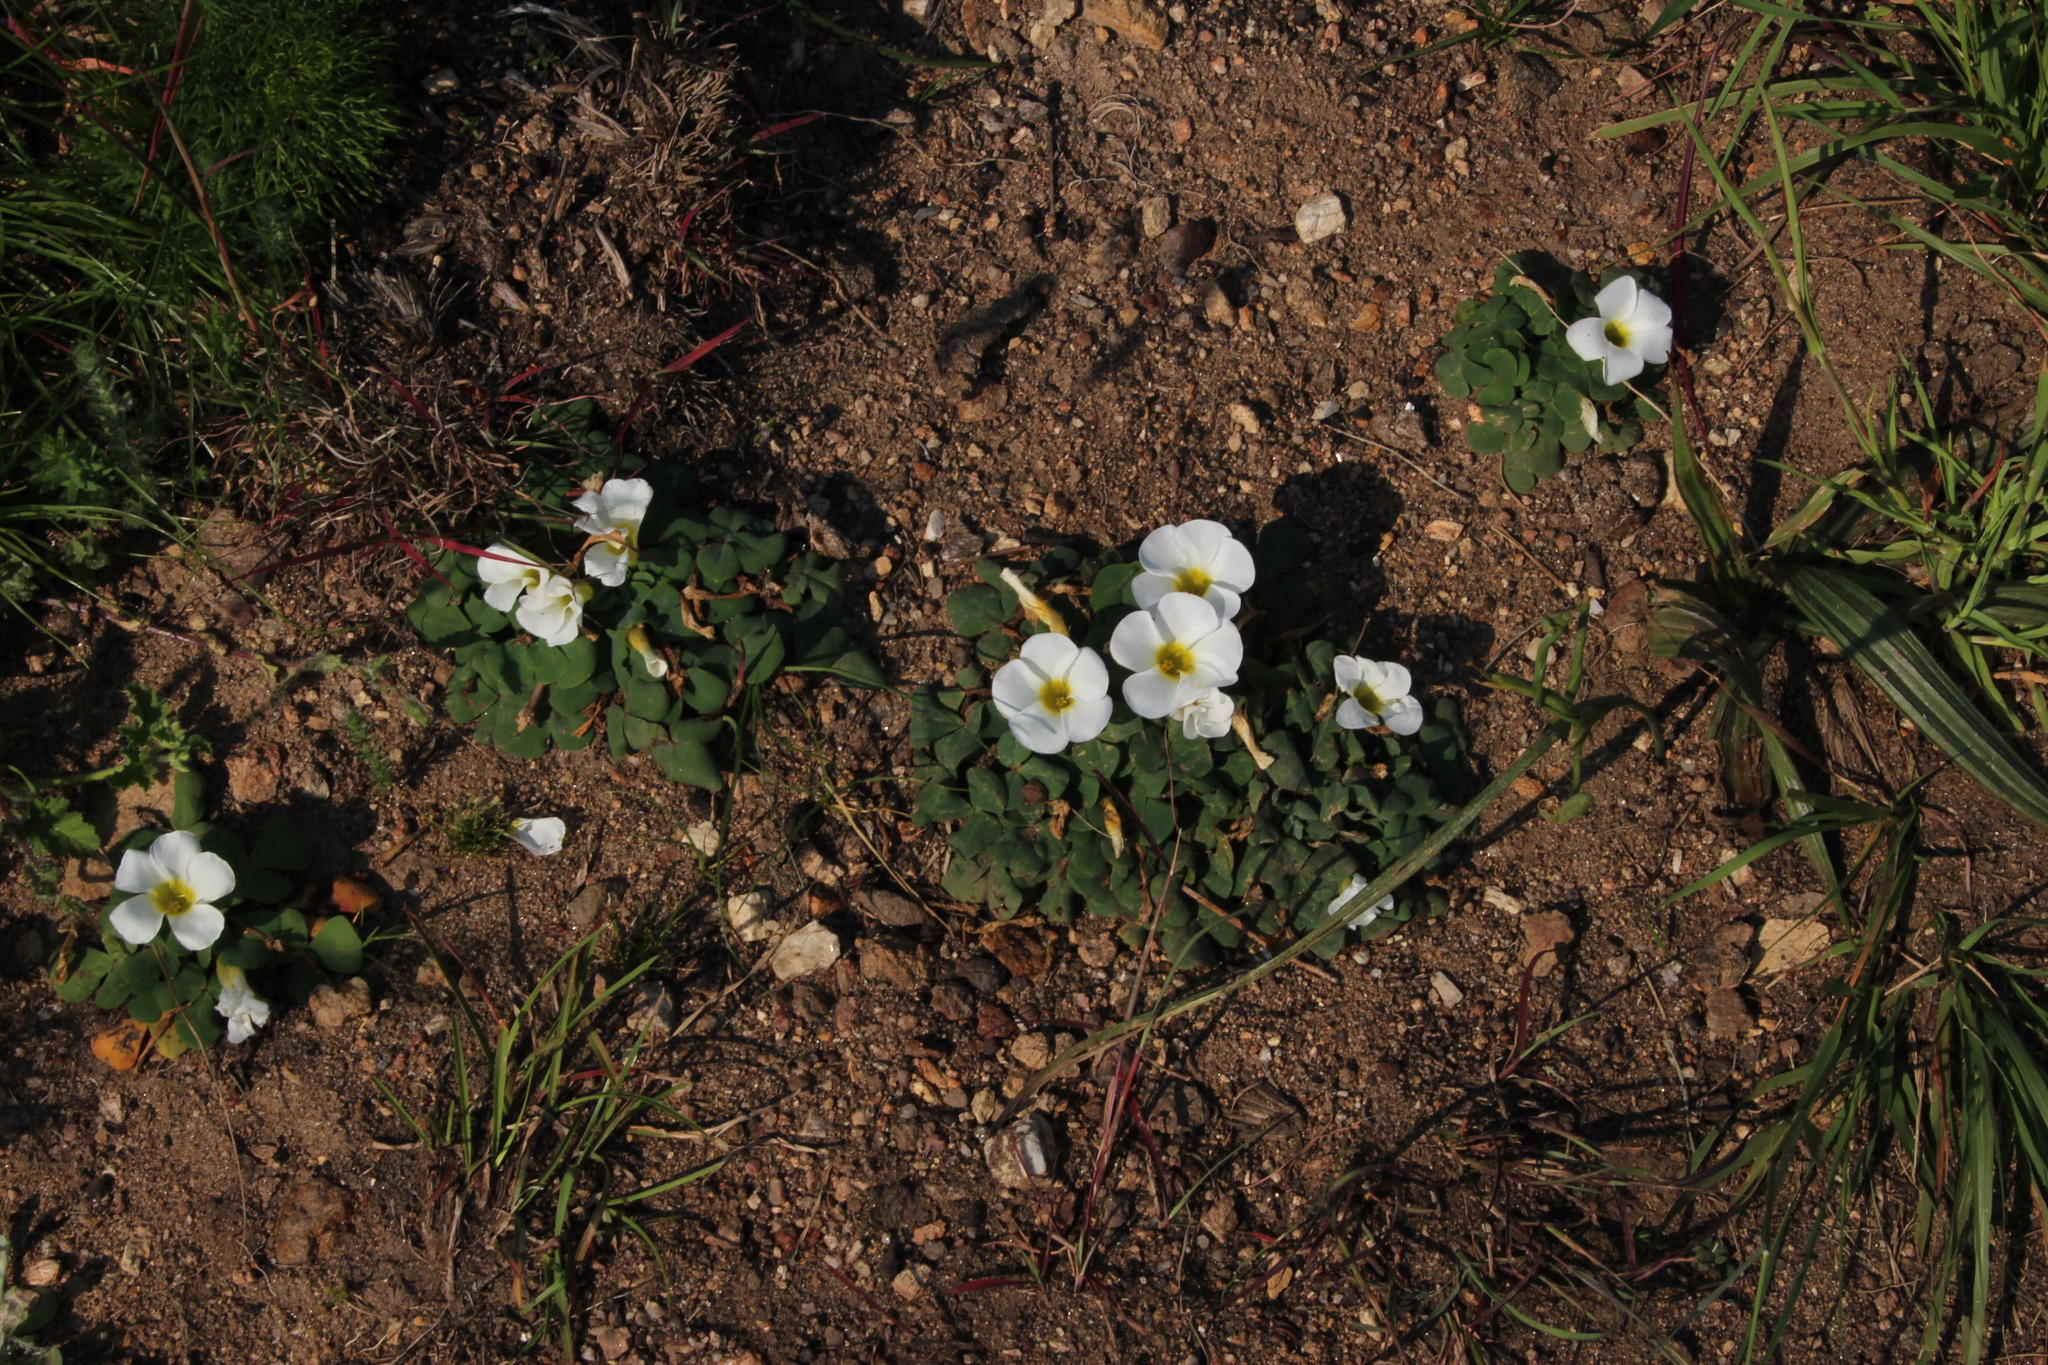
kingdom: Plantae
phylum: Tracheophyta
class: Magnoliopsida
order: Oxalidales
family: Oxalidaceae
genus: Oxalis
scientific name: Oxalis purpurea
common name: Purple woodsorrel
